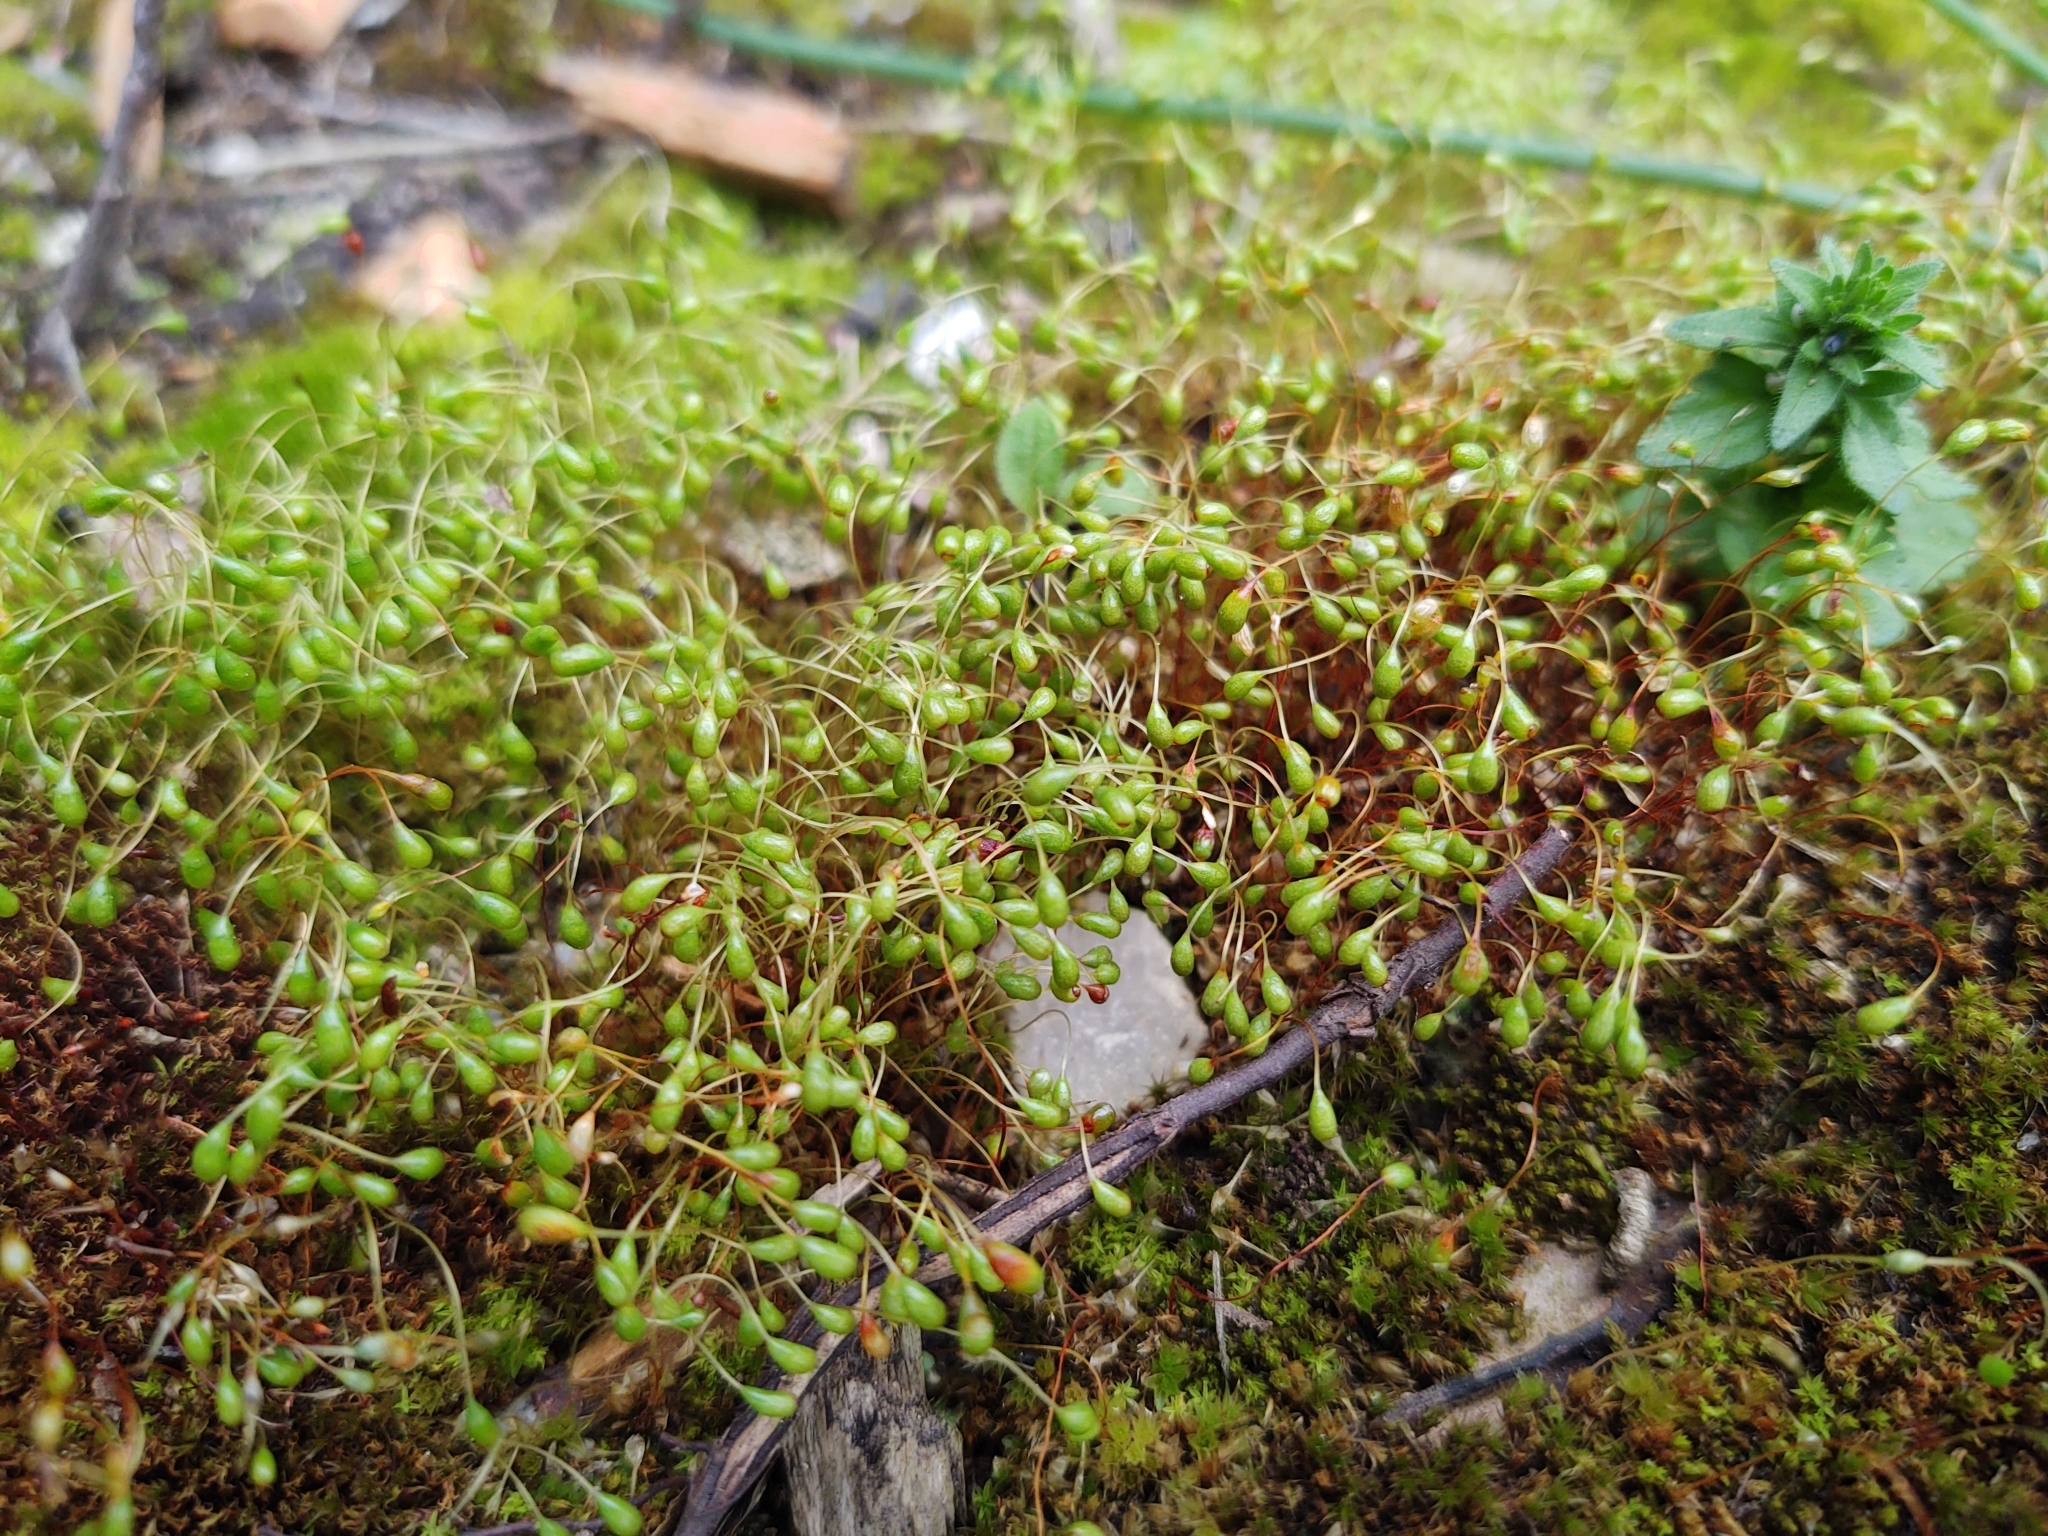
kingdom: Plantae
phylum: Bryophyta
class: Bryopsida
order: Funariales
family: Funariaceae
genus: Funaria
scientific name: Funaria hygrometrica
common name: Common cord moss
